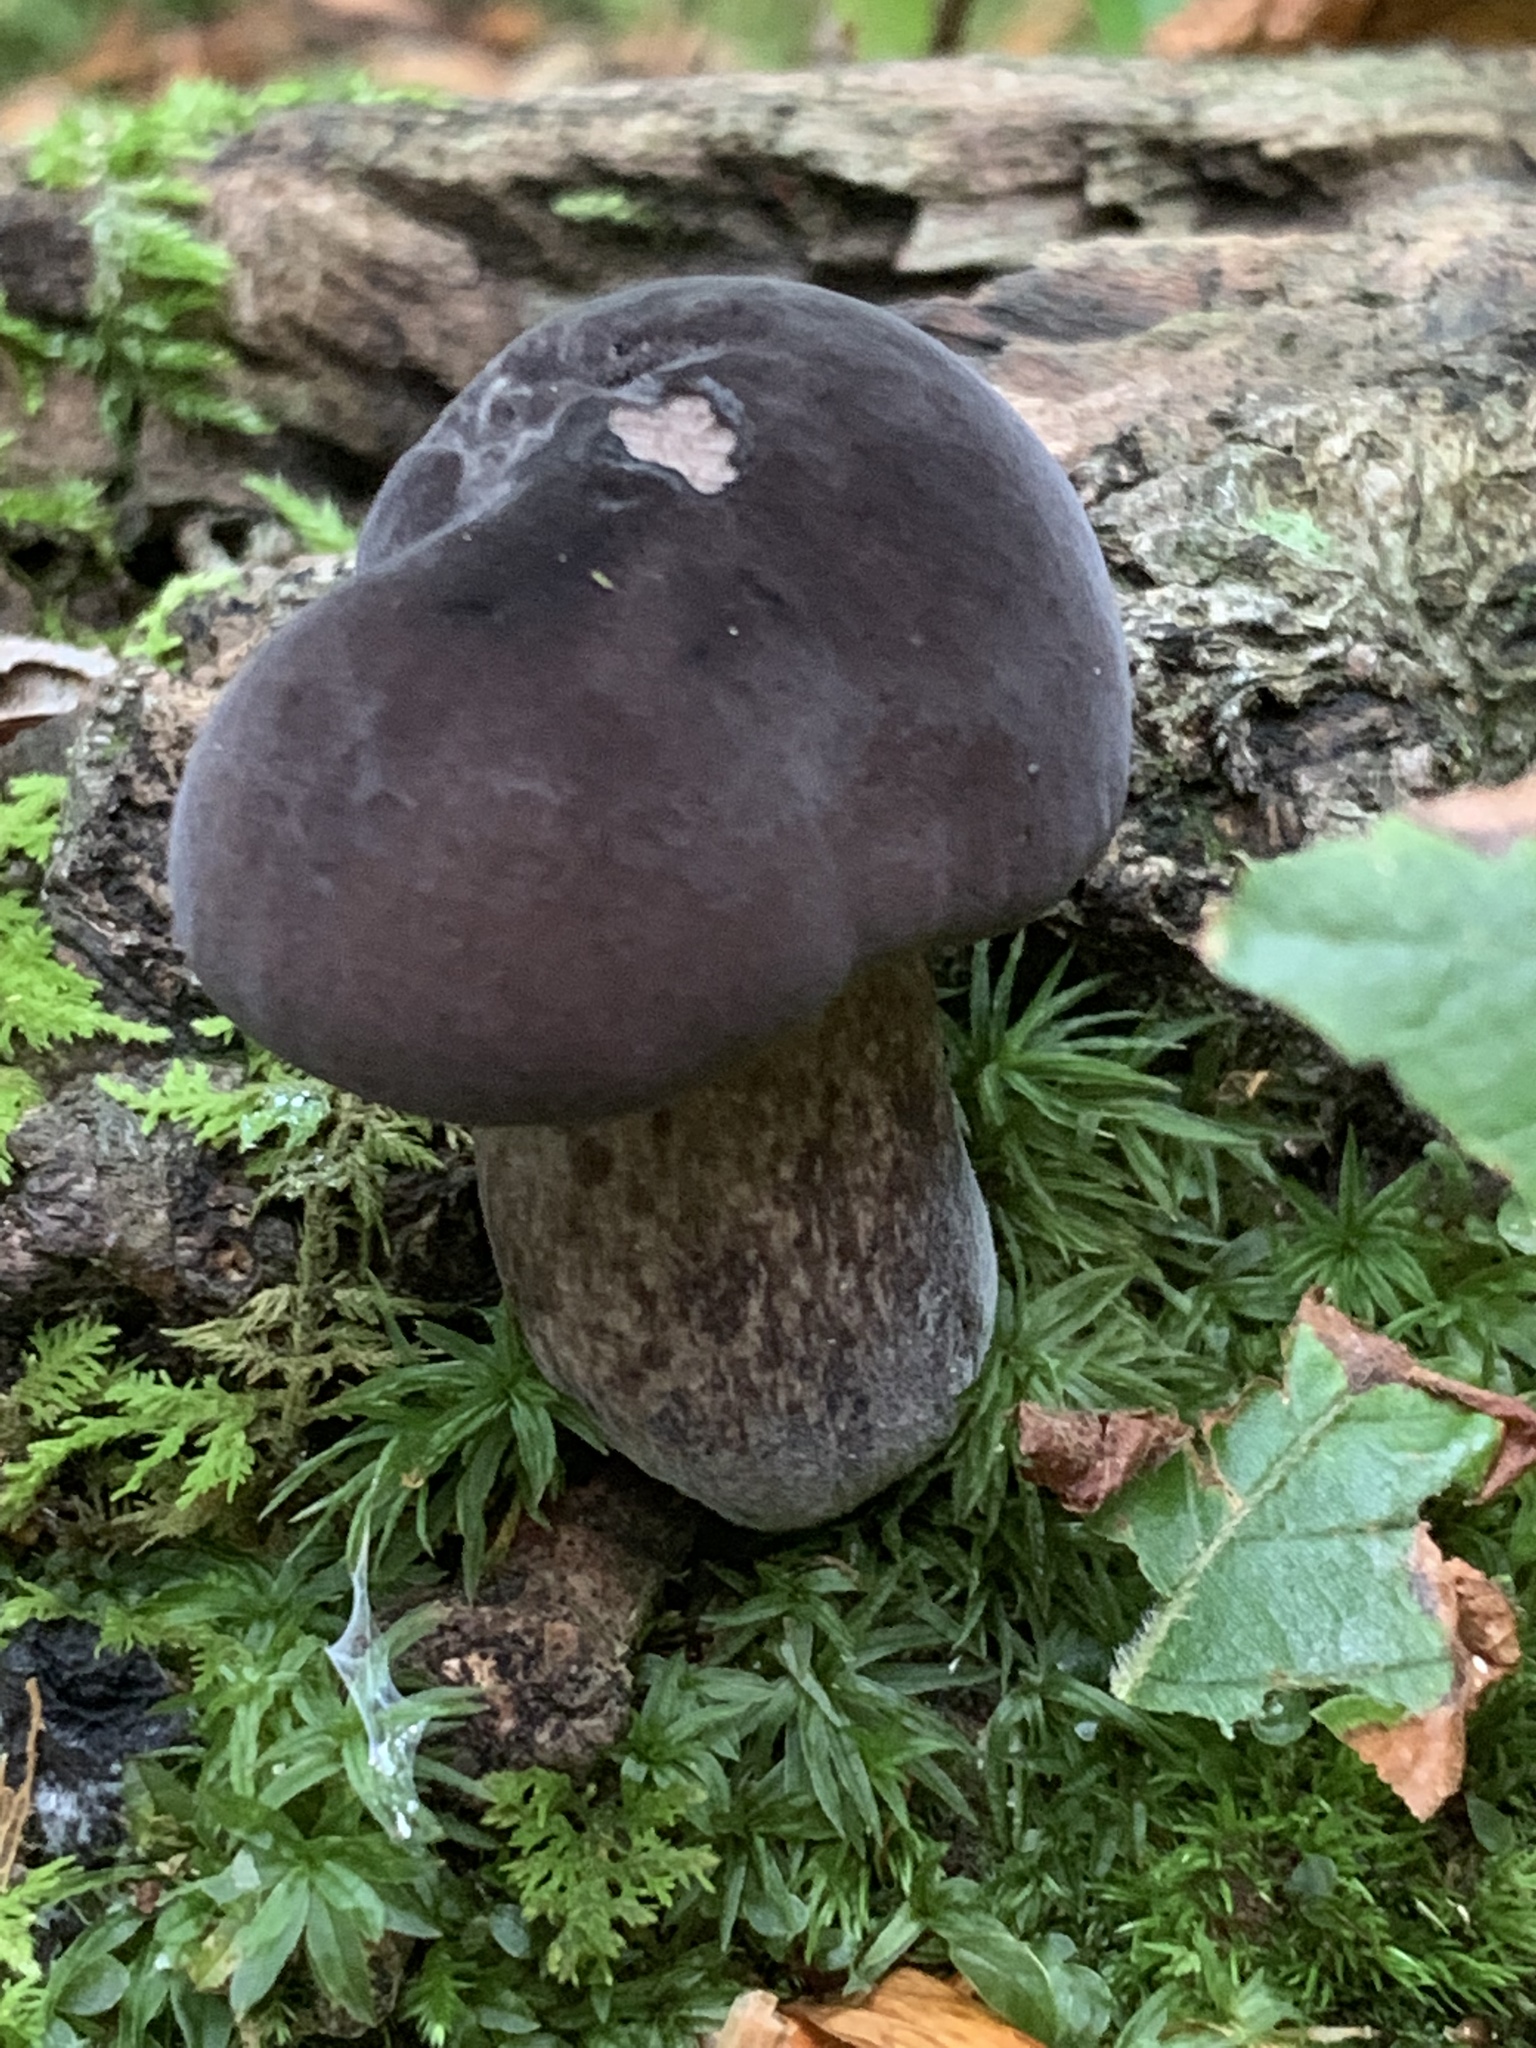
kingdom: Fungi
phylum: Basidiomycota
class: Agaricomycetes
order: Boletales
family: Boletaceae
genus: Tylopilus
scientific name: Tylopilus alboater
